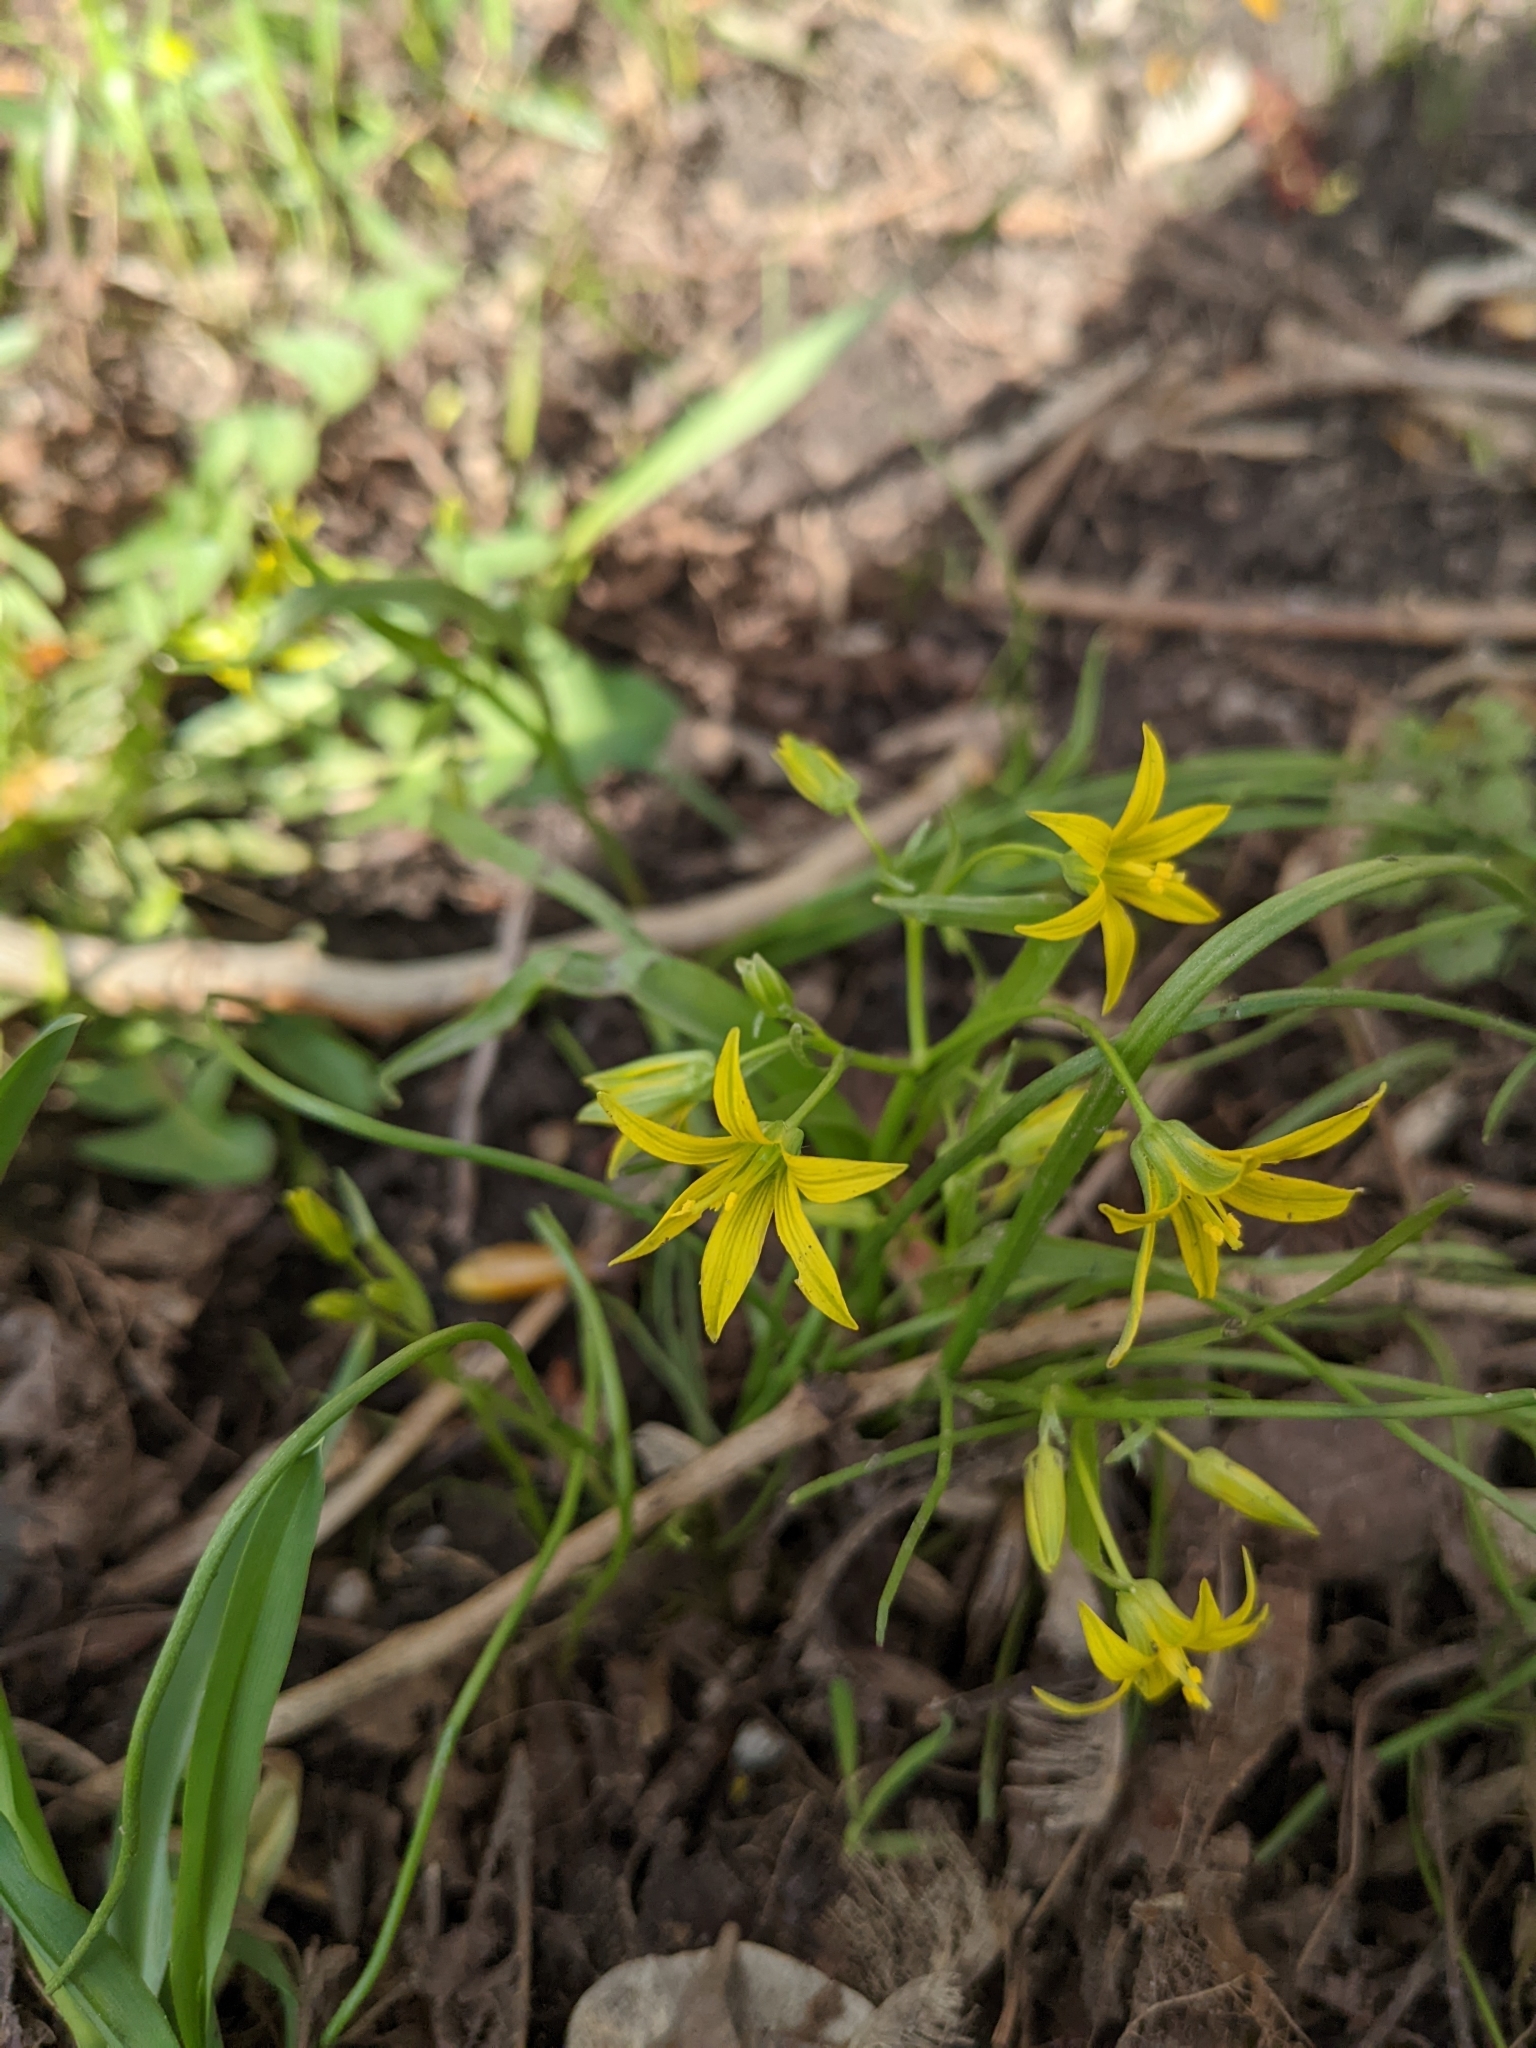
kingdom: Plantae
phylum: Tracheophyta
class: Liliopsida
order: Liliales
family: Liliaceae
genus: Gagea
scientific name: Gagea minima
